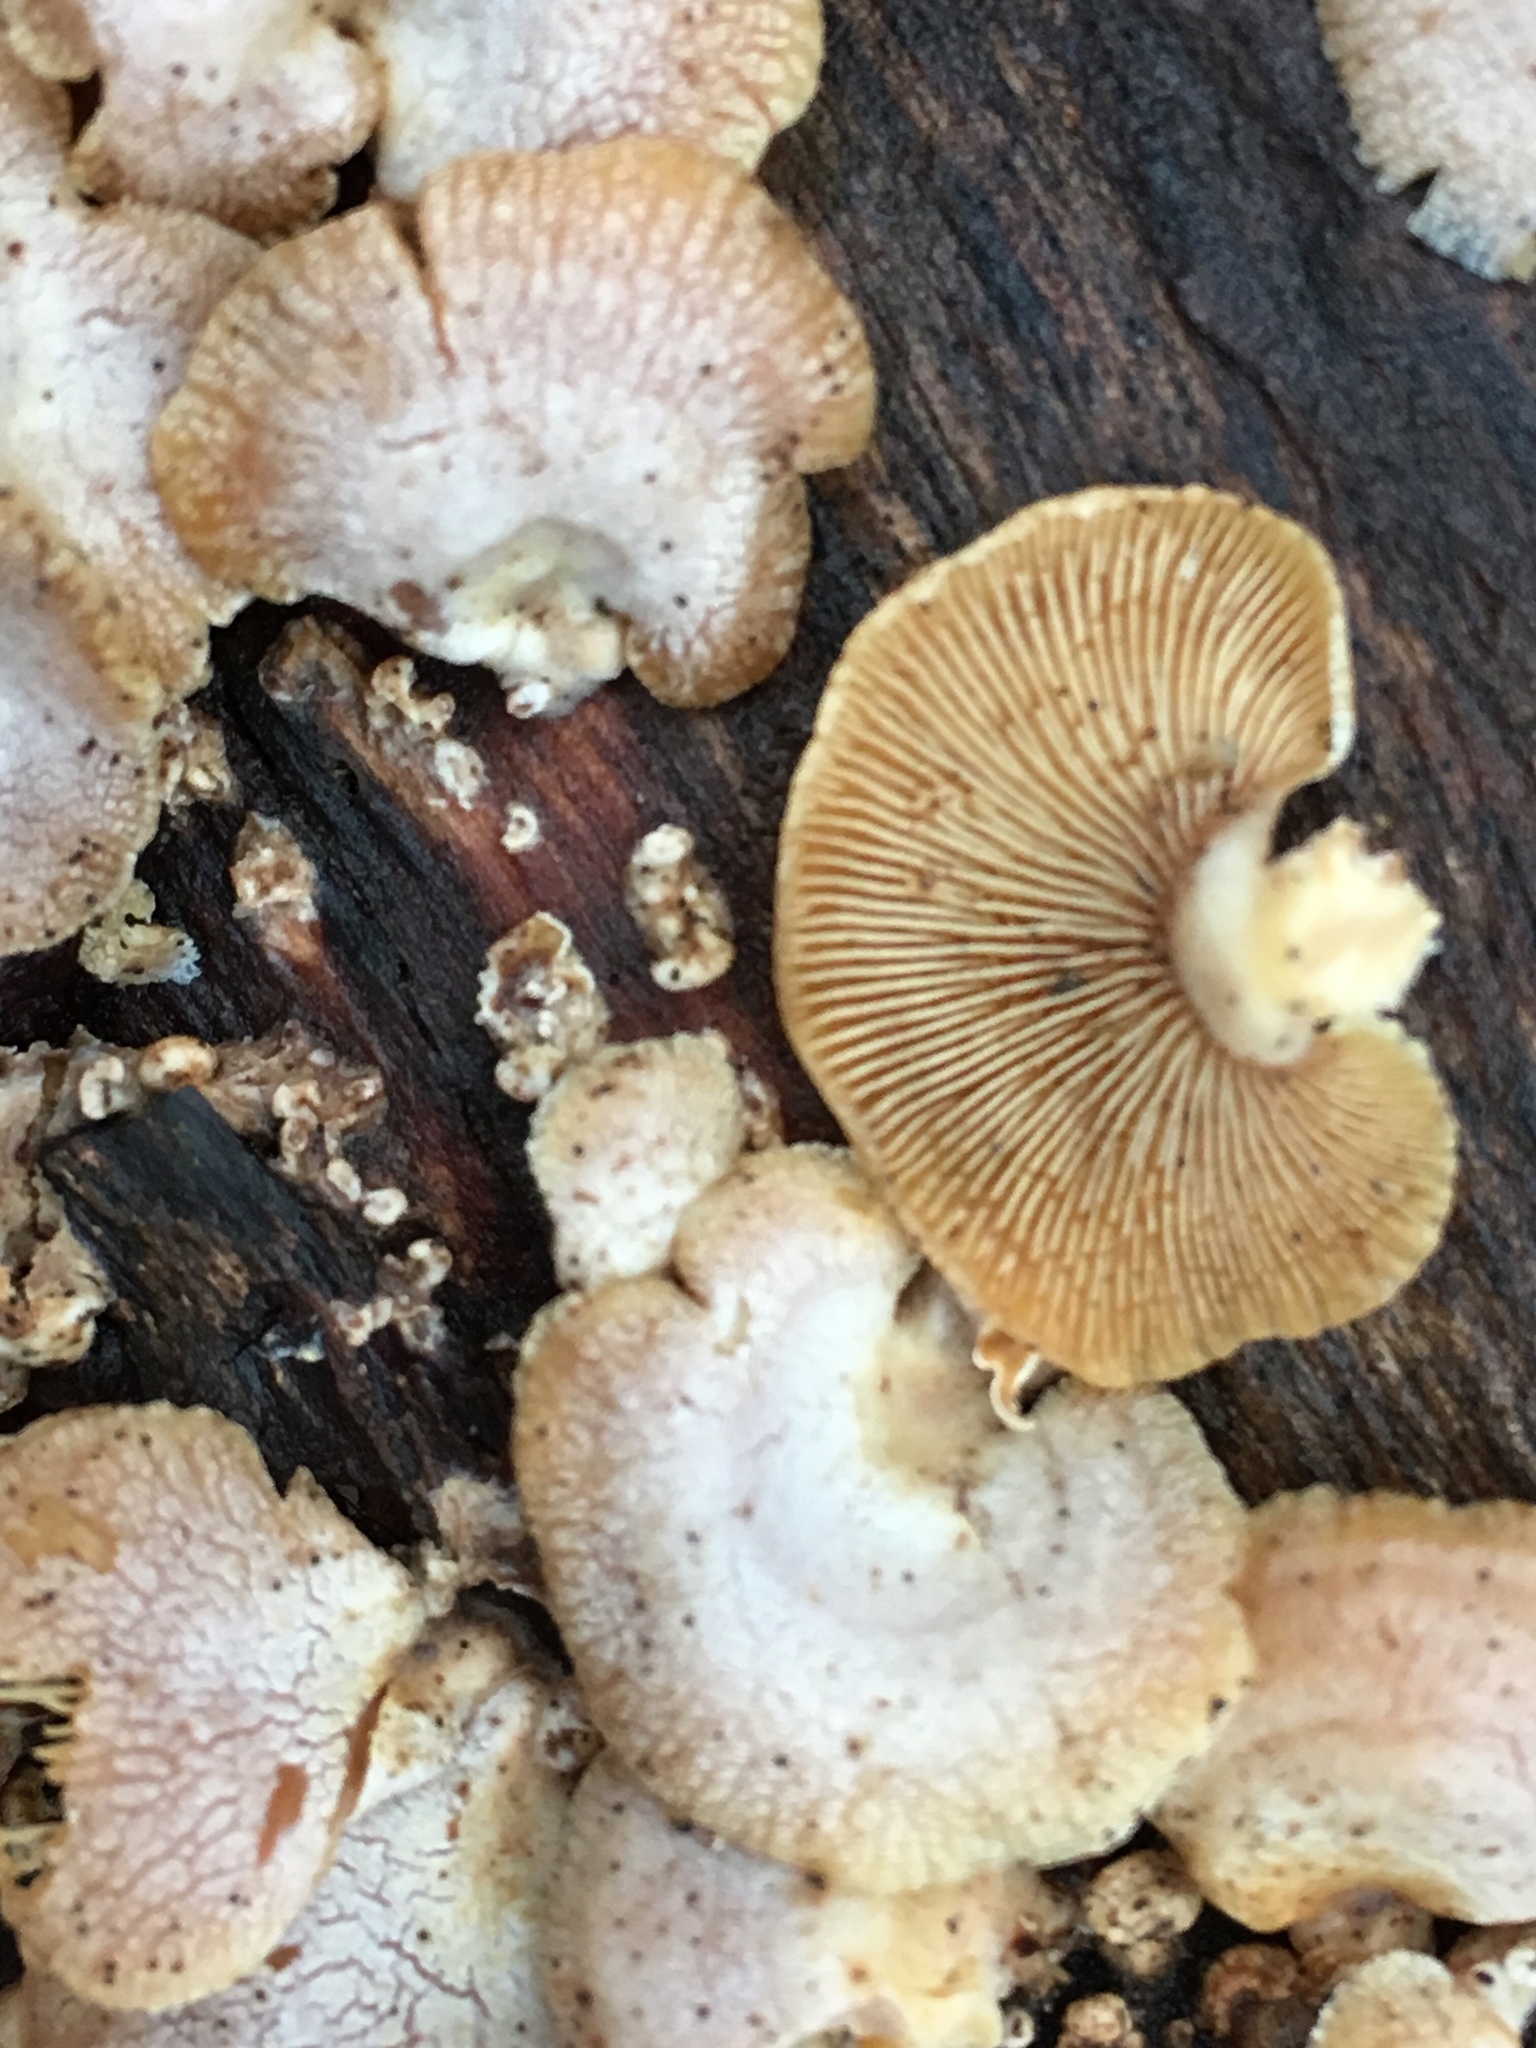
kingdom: Fungi
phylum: Basidiomycota
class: Agaricomycetes
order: Agaricales
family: Mycenaceae
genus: Panellus
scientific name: Panellus stipticus
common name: Bitter oysterling
